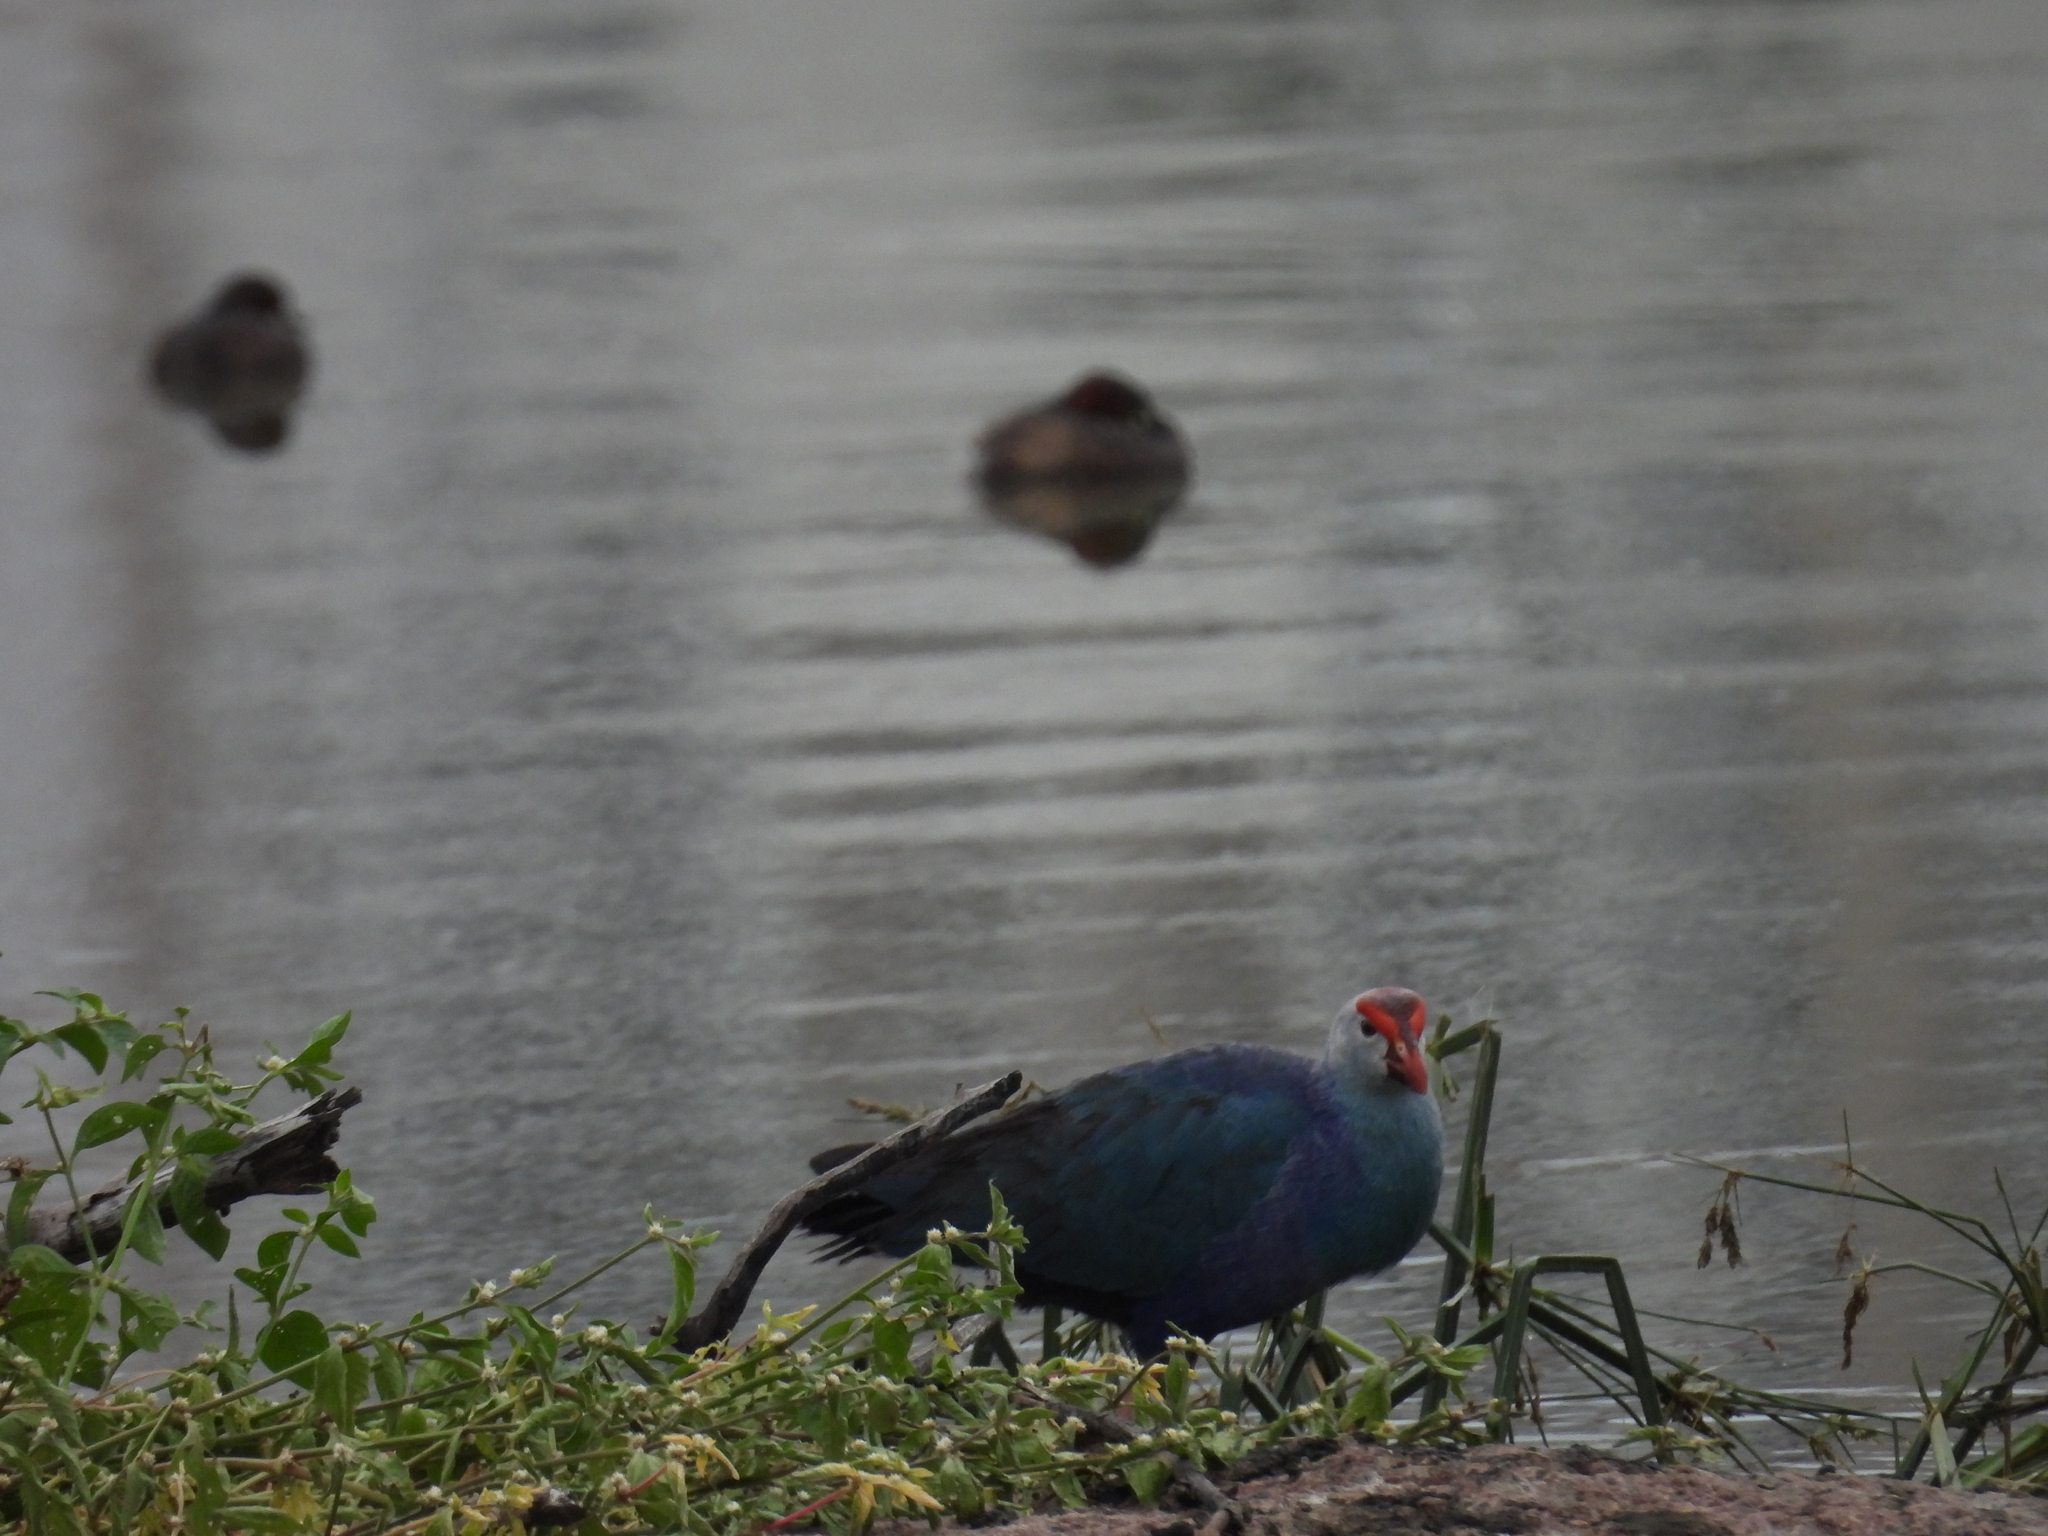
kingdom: Animalia
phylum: Chordata
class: Aves
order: Gruiformes
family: Rallidae
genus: Porphyrio
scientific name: Porphyrio porphyrio
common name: Purple swamphen
